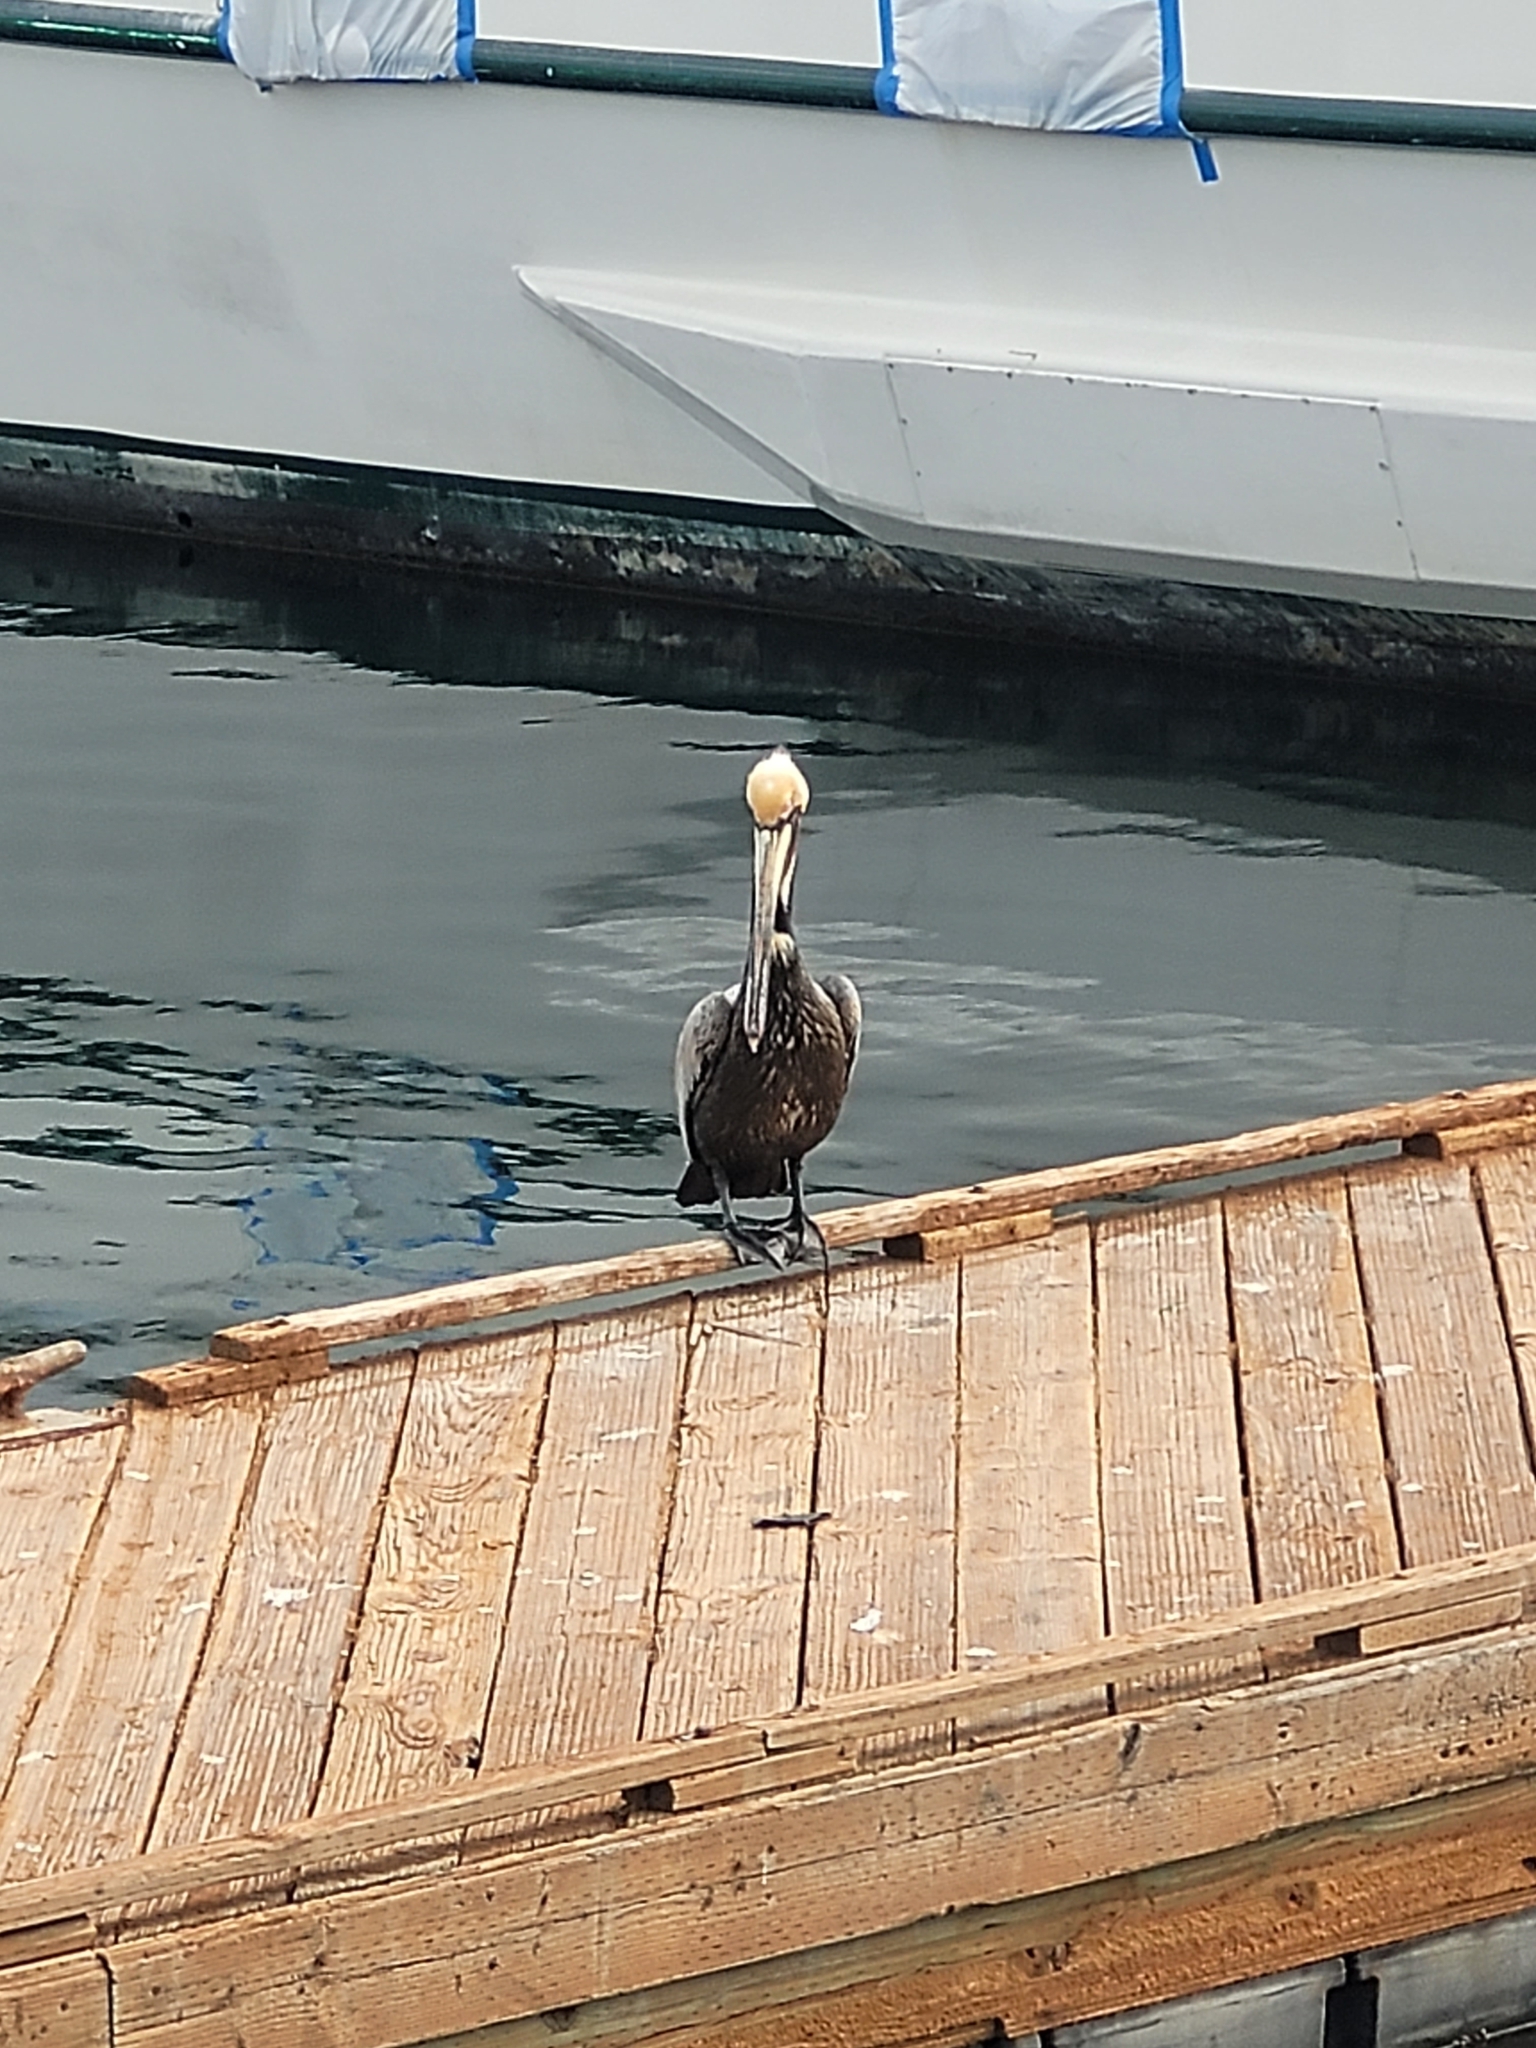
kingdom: Animalia
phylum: Chordata
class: Aves
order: Pelecaniformes
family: Pelecanidae
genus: Pelecanus
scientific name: Pelecanus occidentalis
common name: Brown pelican
